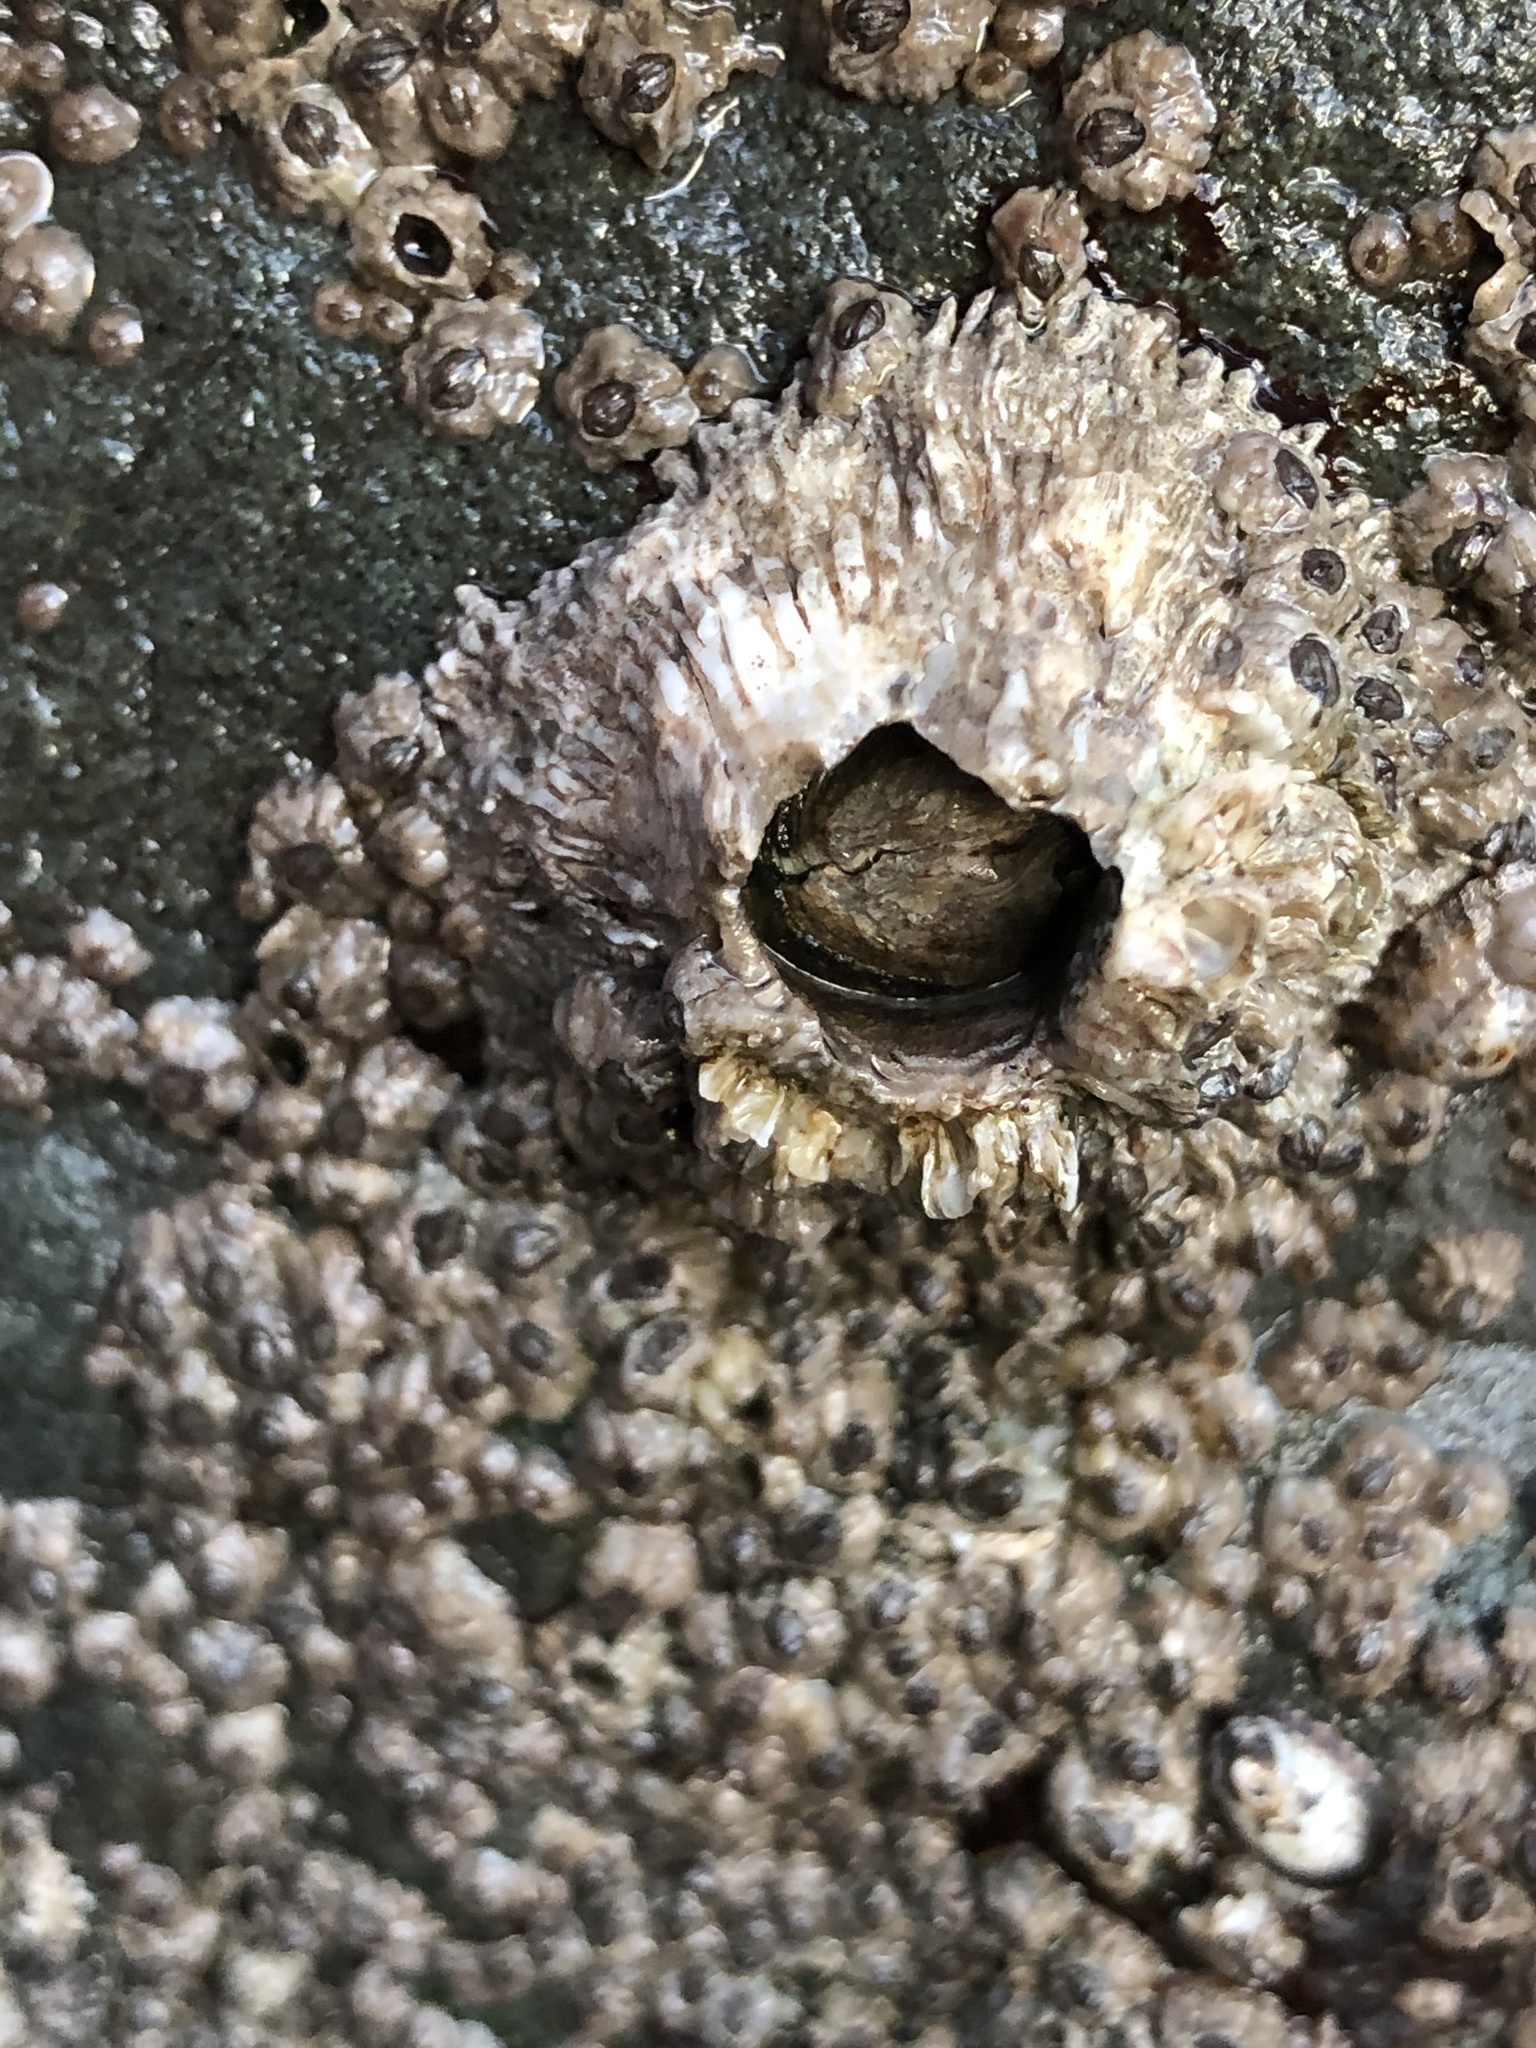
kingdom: Animalia
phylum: Arthropoda
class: Maxillopoda
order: Sessilia
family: Archaeobalanidae
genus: Semibalanus
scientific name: Semibalanus cariosus
